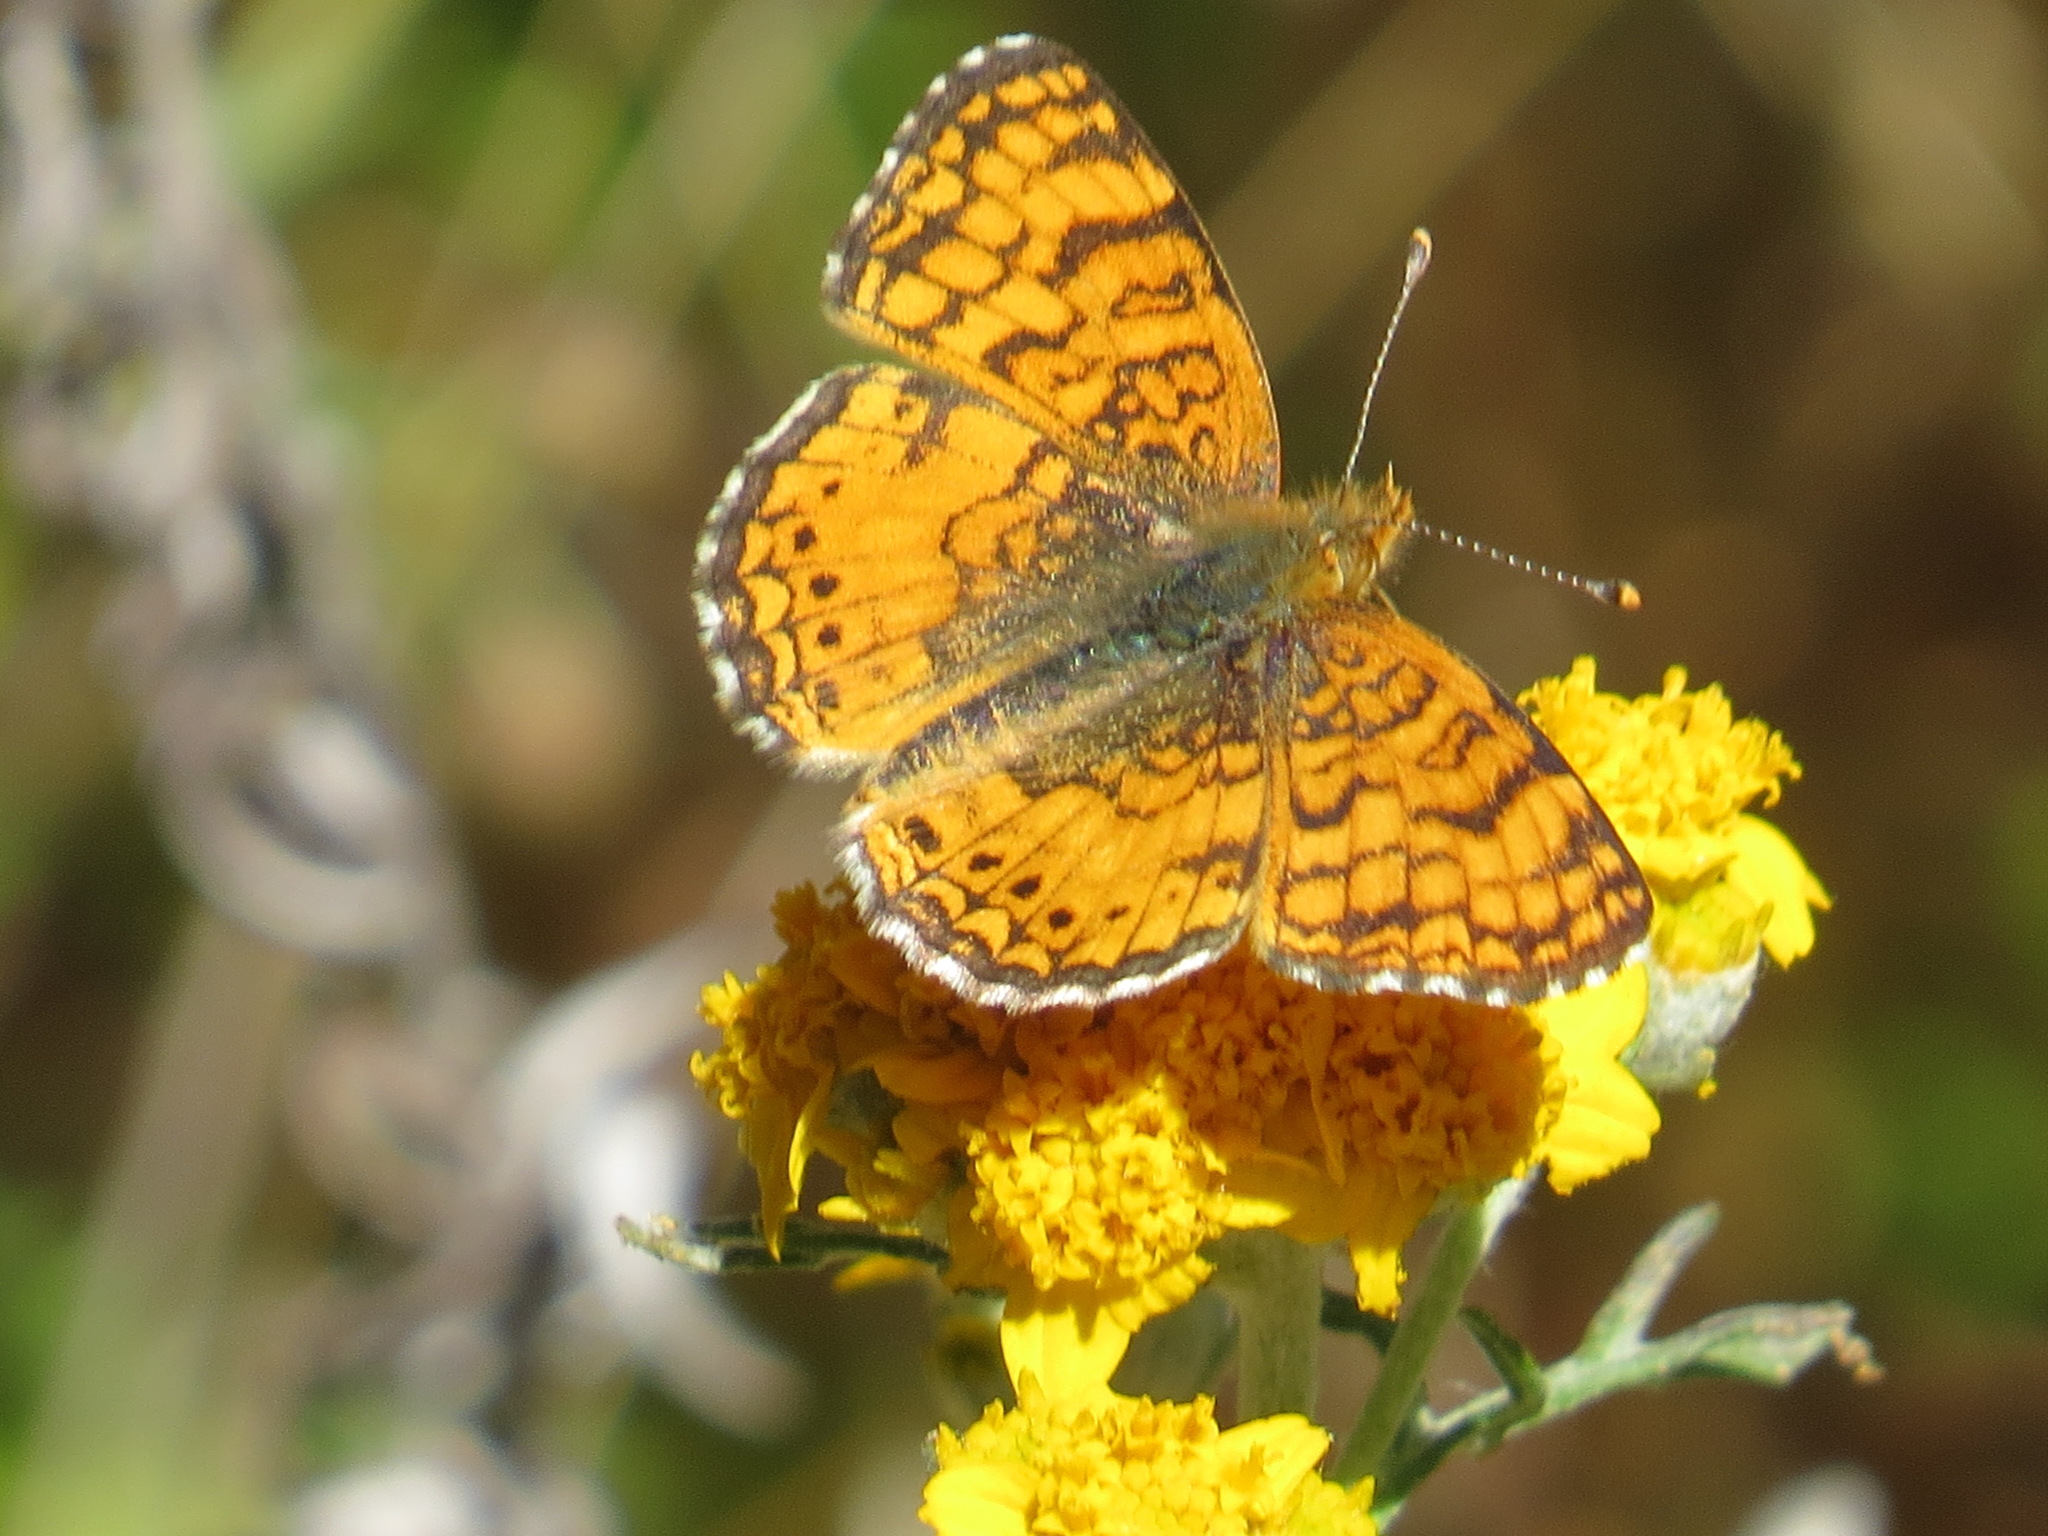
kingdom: Animalia
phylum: Arthropoda
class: Insecta
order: Lepidoptera
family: Nymphalidae
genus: Eresia
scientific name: Eresia aveyrona
